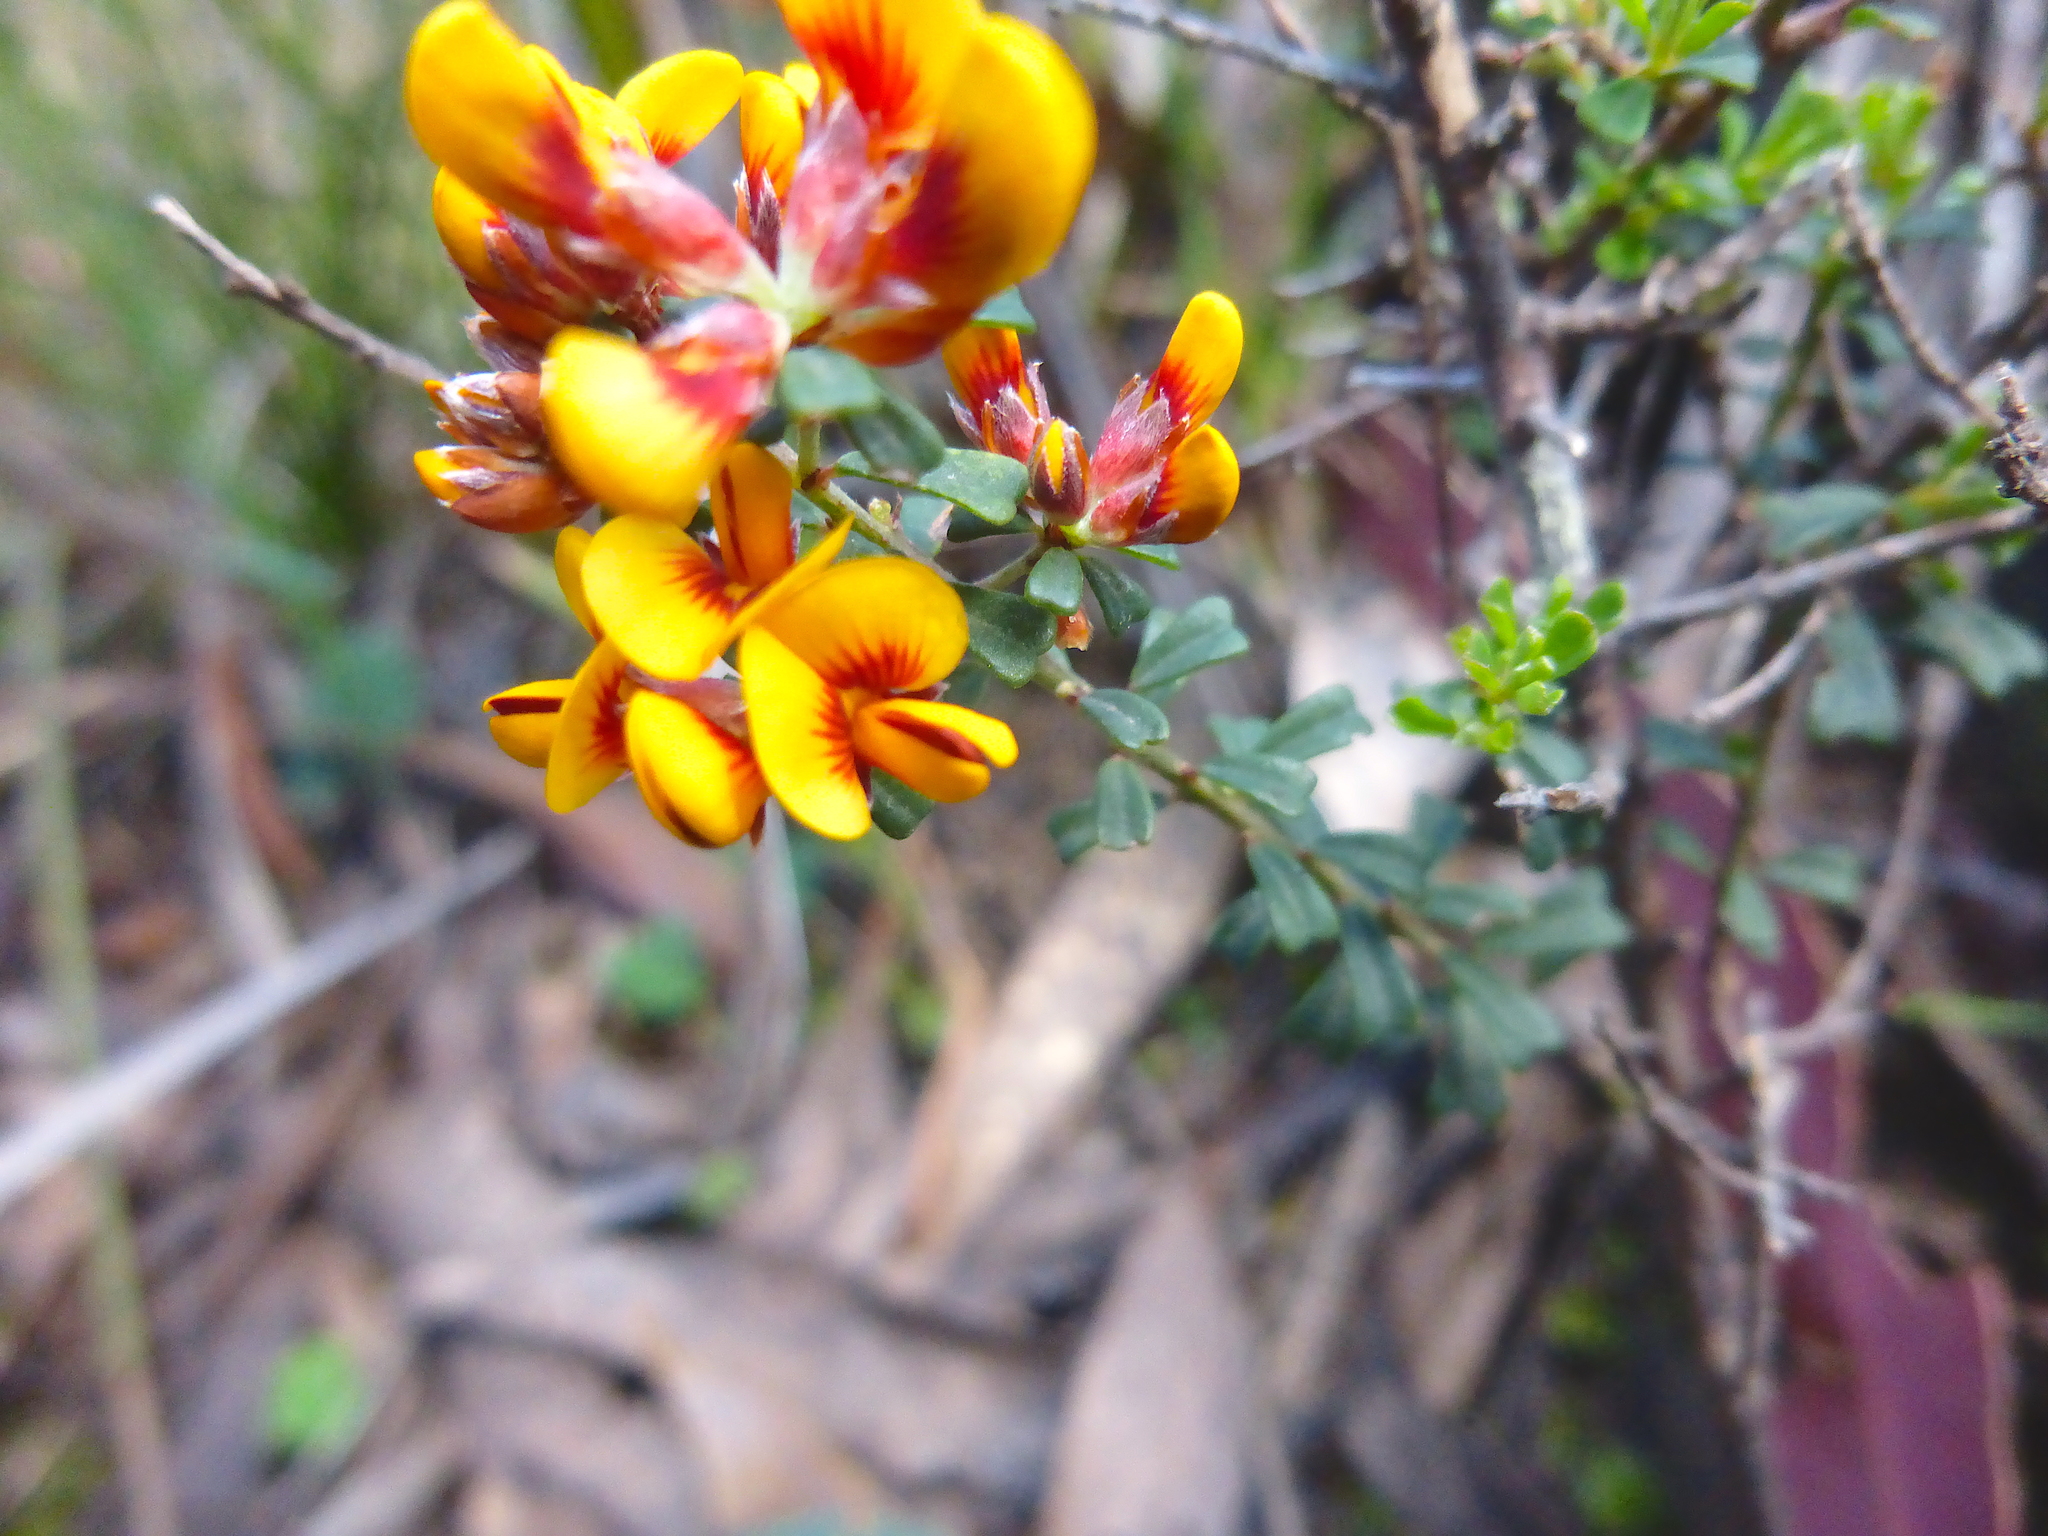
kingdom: Plantae
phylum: Tracheophyta
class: Magnoliopsida
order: Fabales
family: Fabaceae
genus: Pultenaea
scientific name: Pultenaea retusa
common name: Blunt bush-pea
